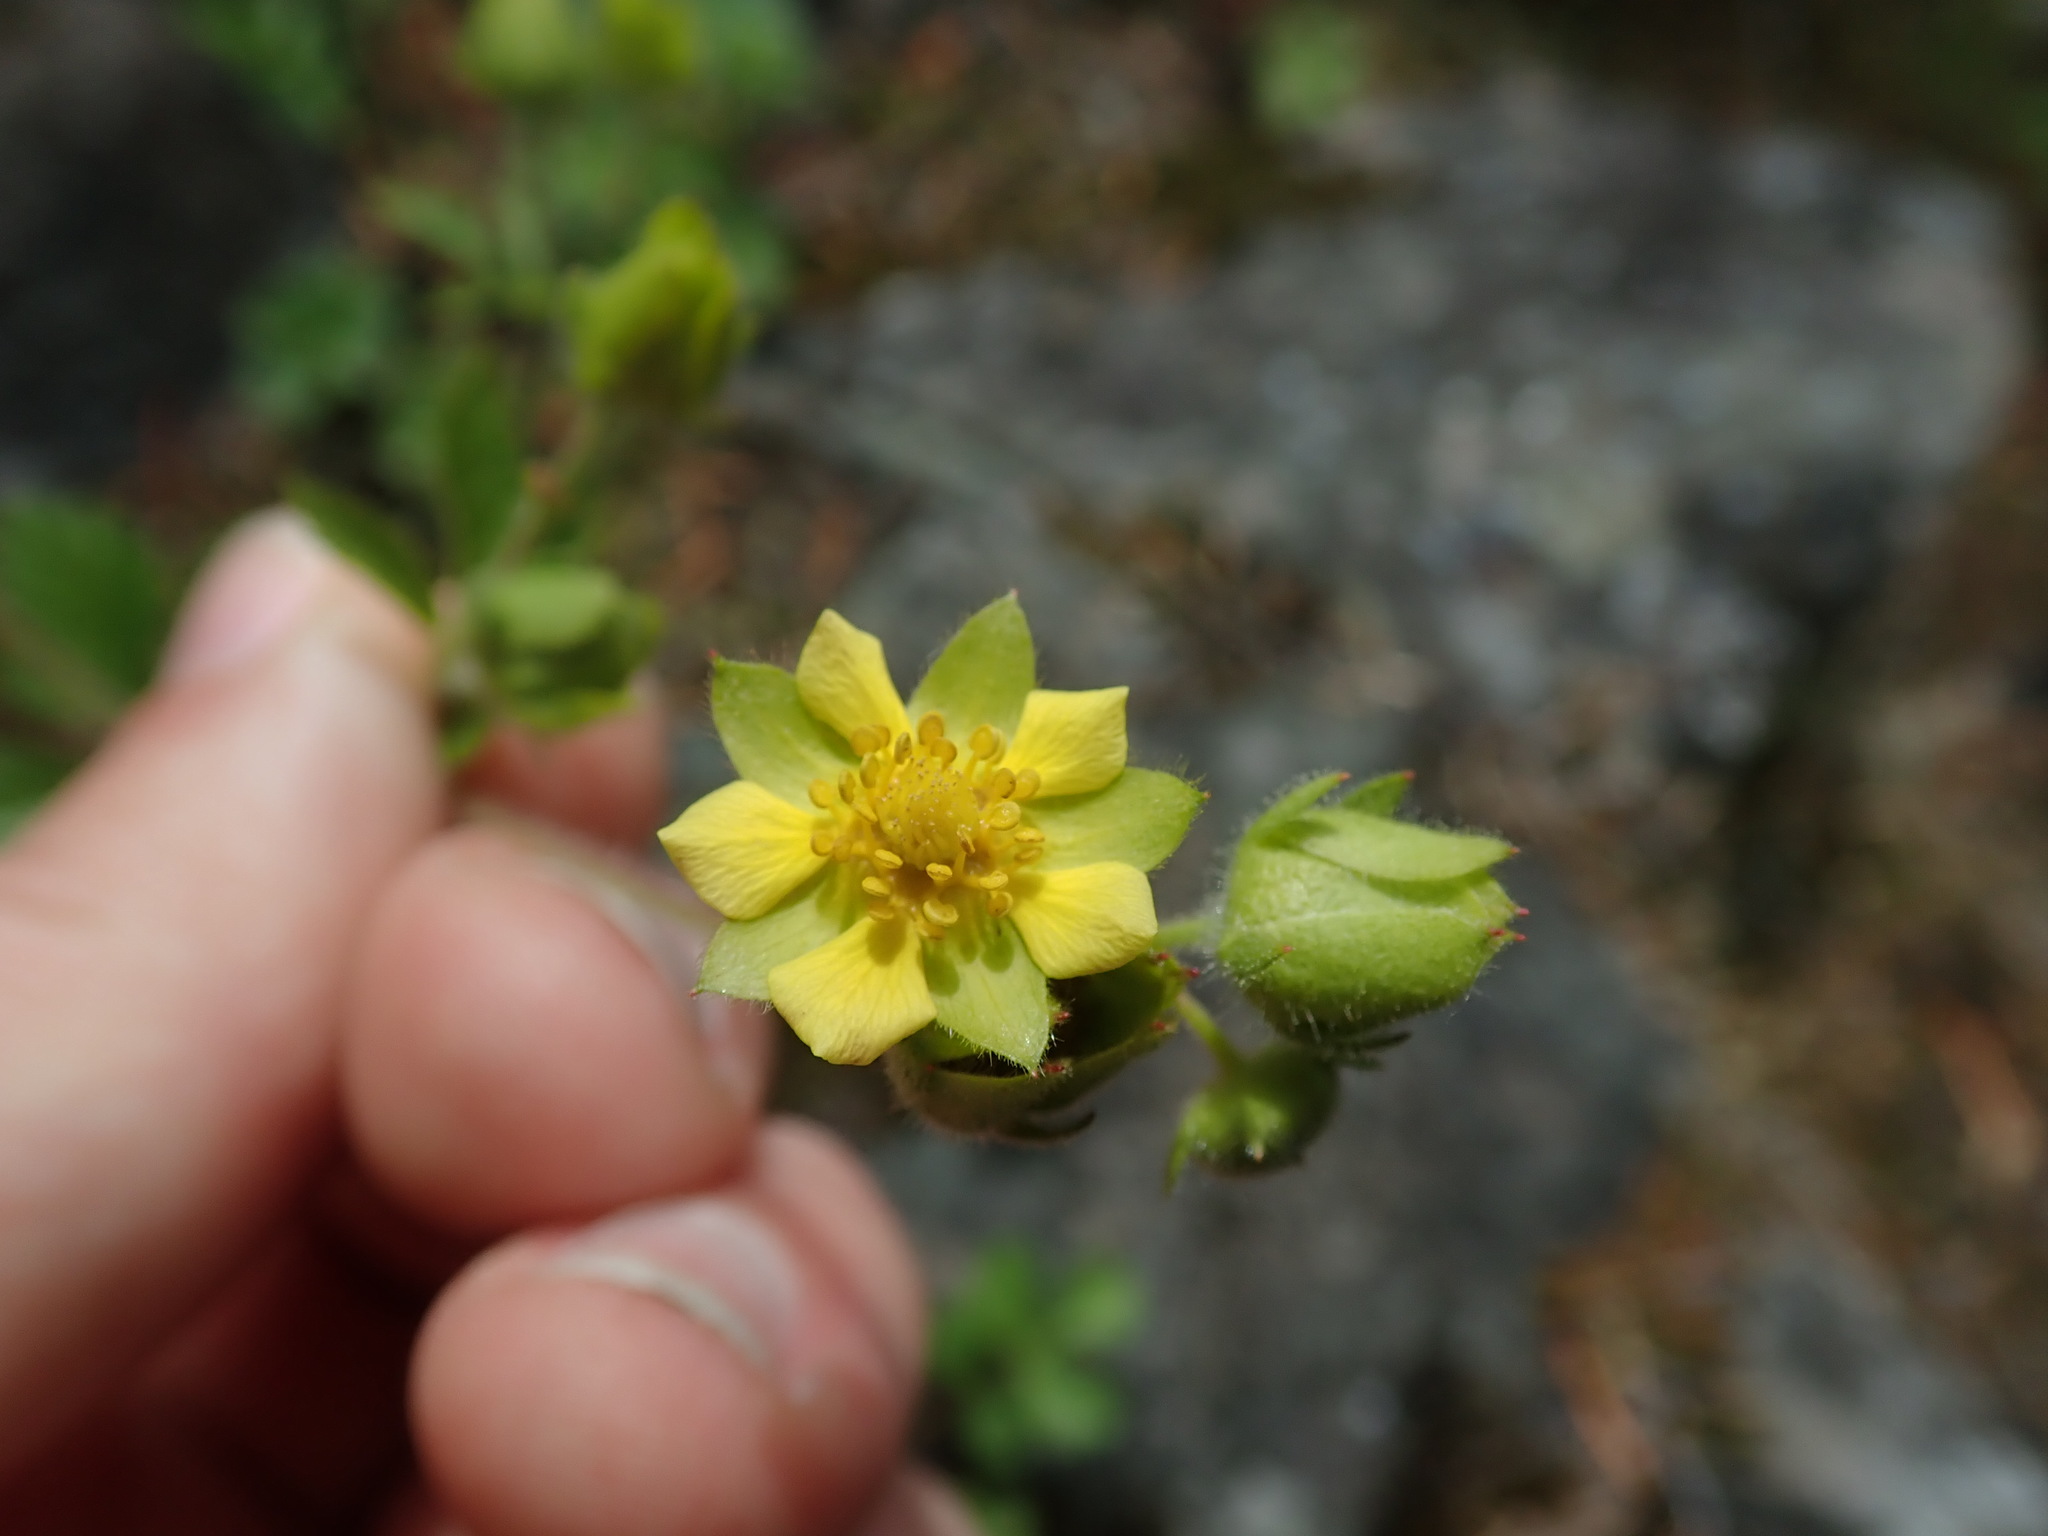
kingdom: Plantae
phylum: Tracheophyta
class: Magnoliopsida
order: Rosales
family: Rosaceae
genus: Drymocallis
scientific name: Drymocallis glandulosa
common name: Sticky cinquefoil
